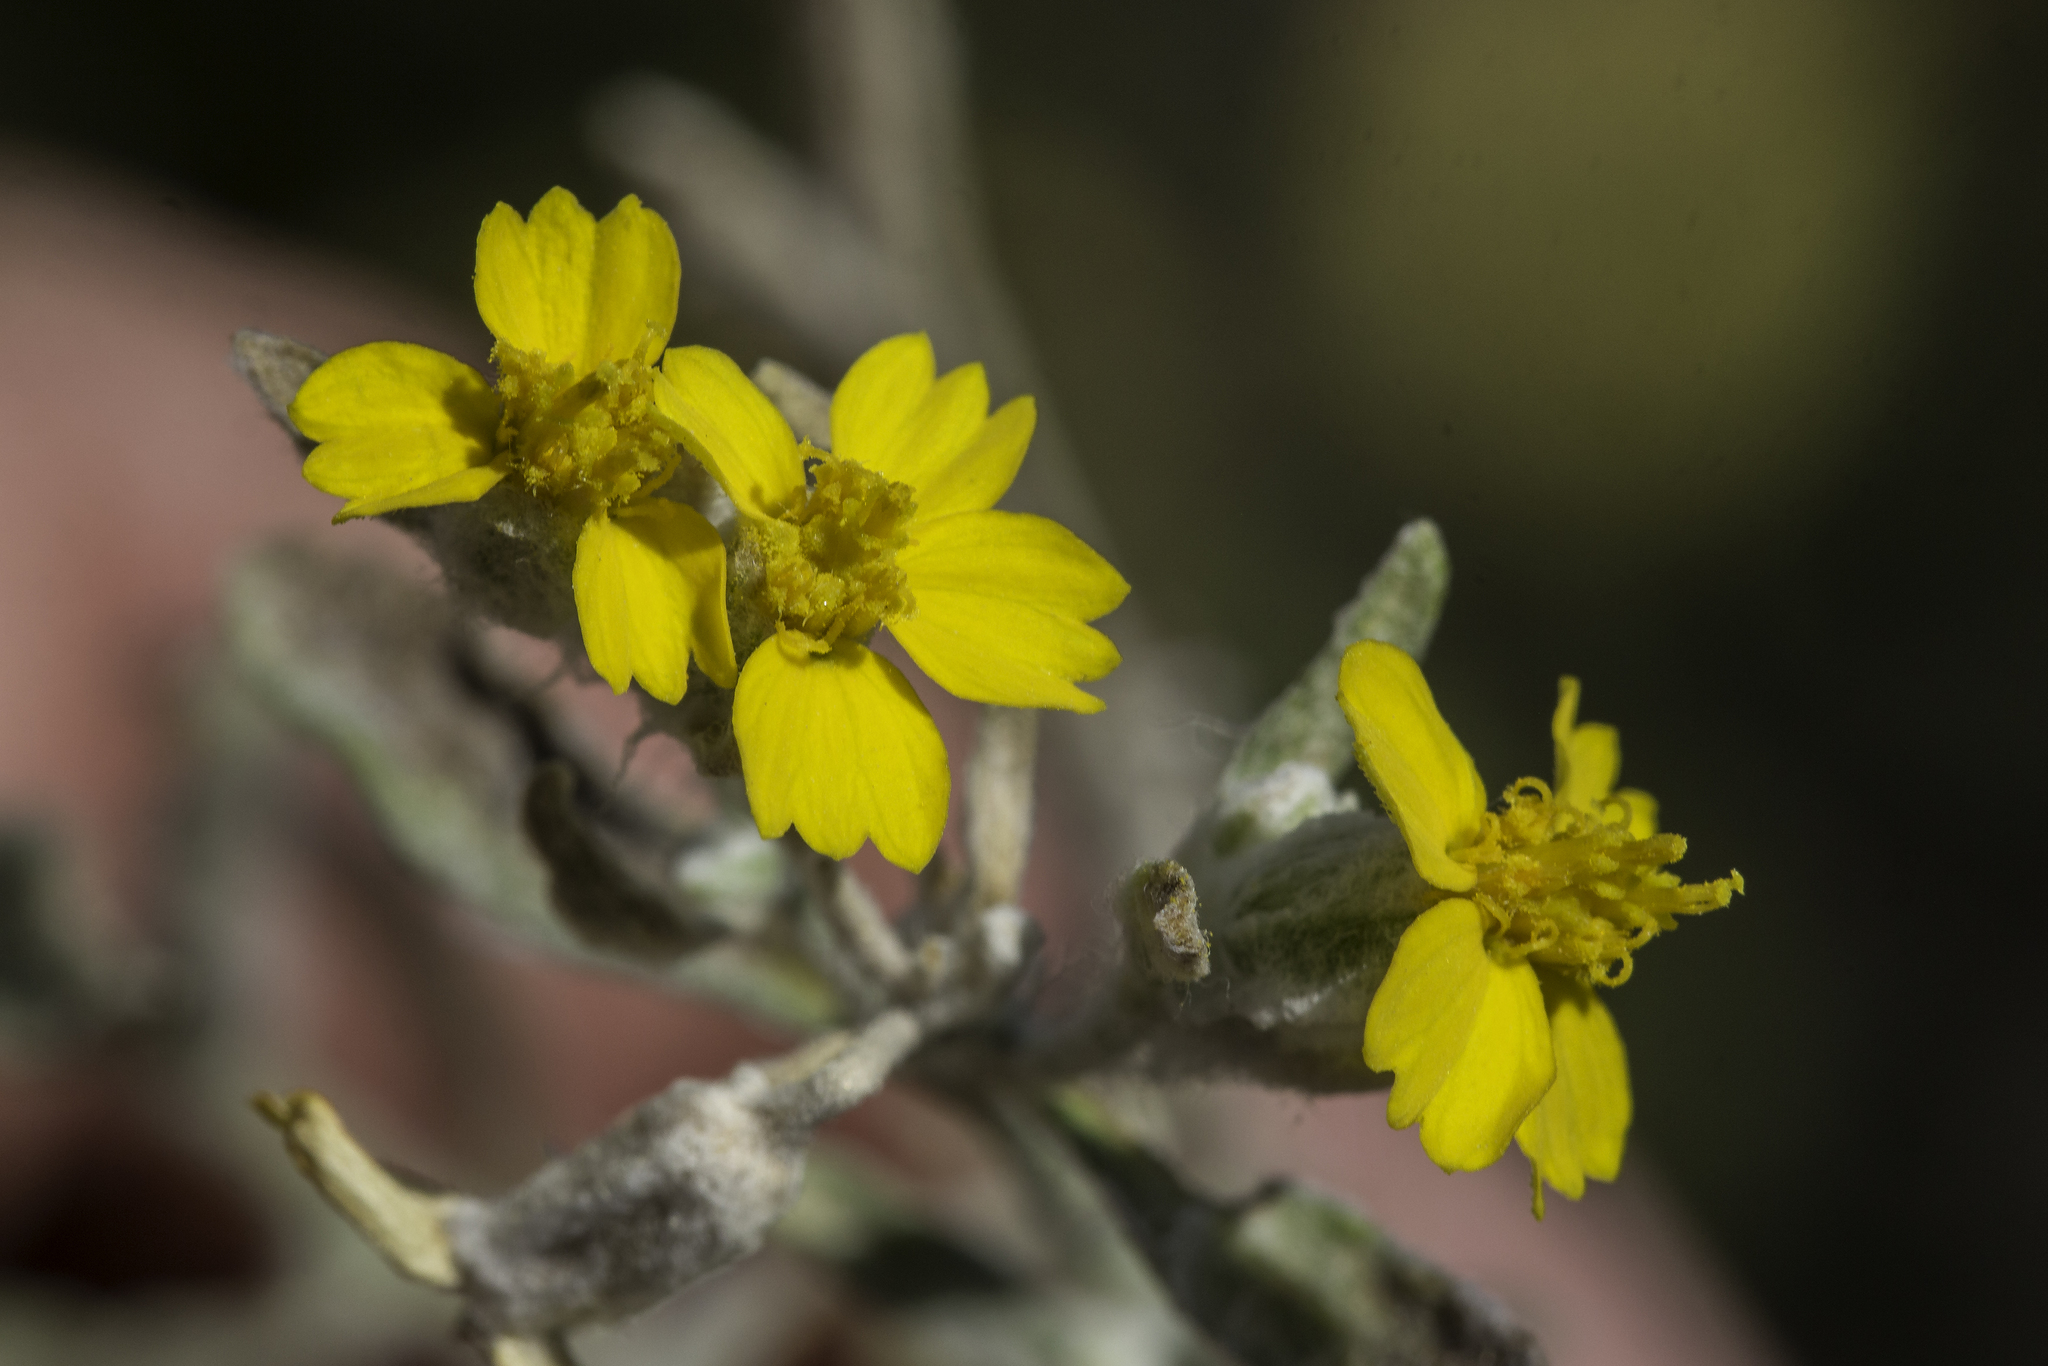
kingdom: Plantae
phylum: Tracheophyta
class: Magnoliopsida
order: Asterales
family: Asteraceae
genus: Psilostrophe
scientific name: Psilostrophe tagetina
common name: Marigold paper-flower
